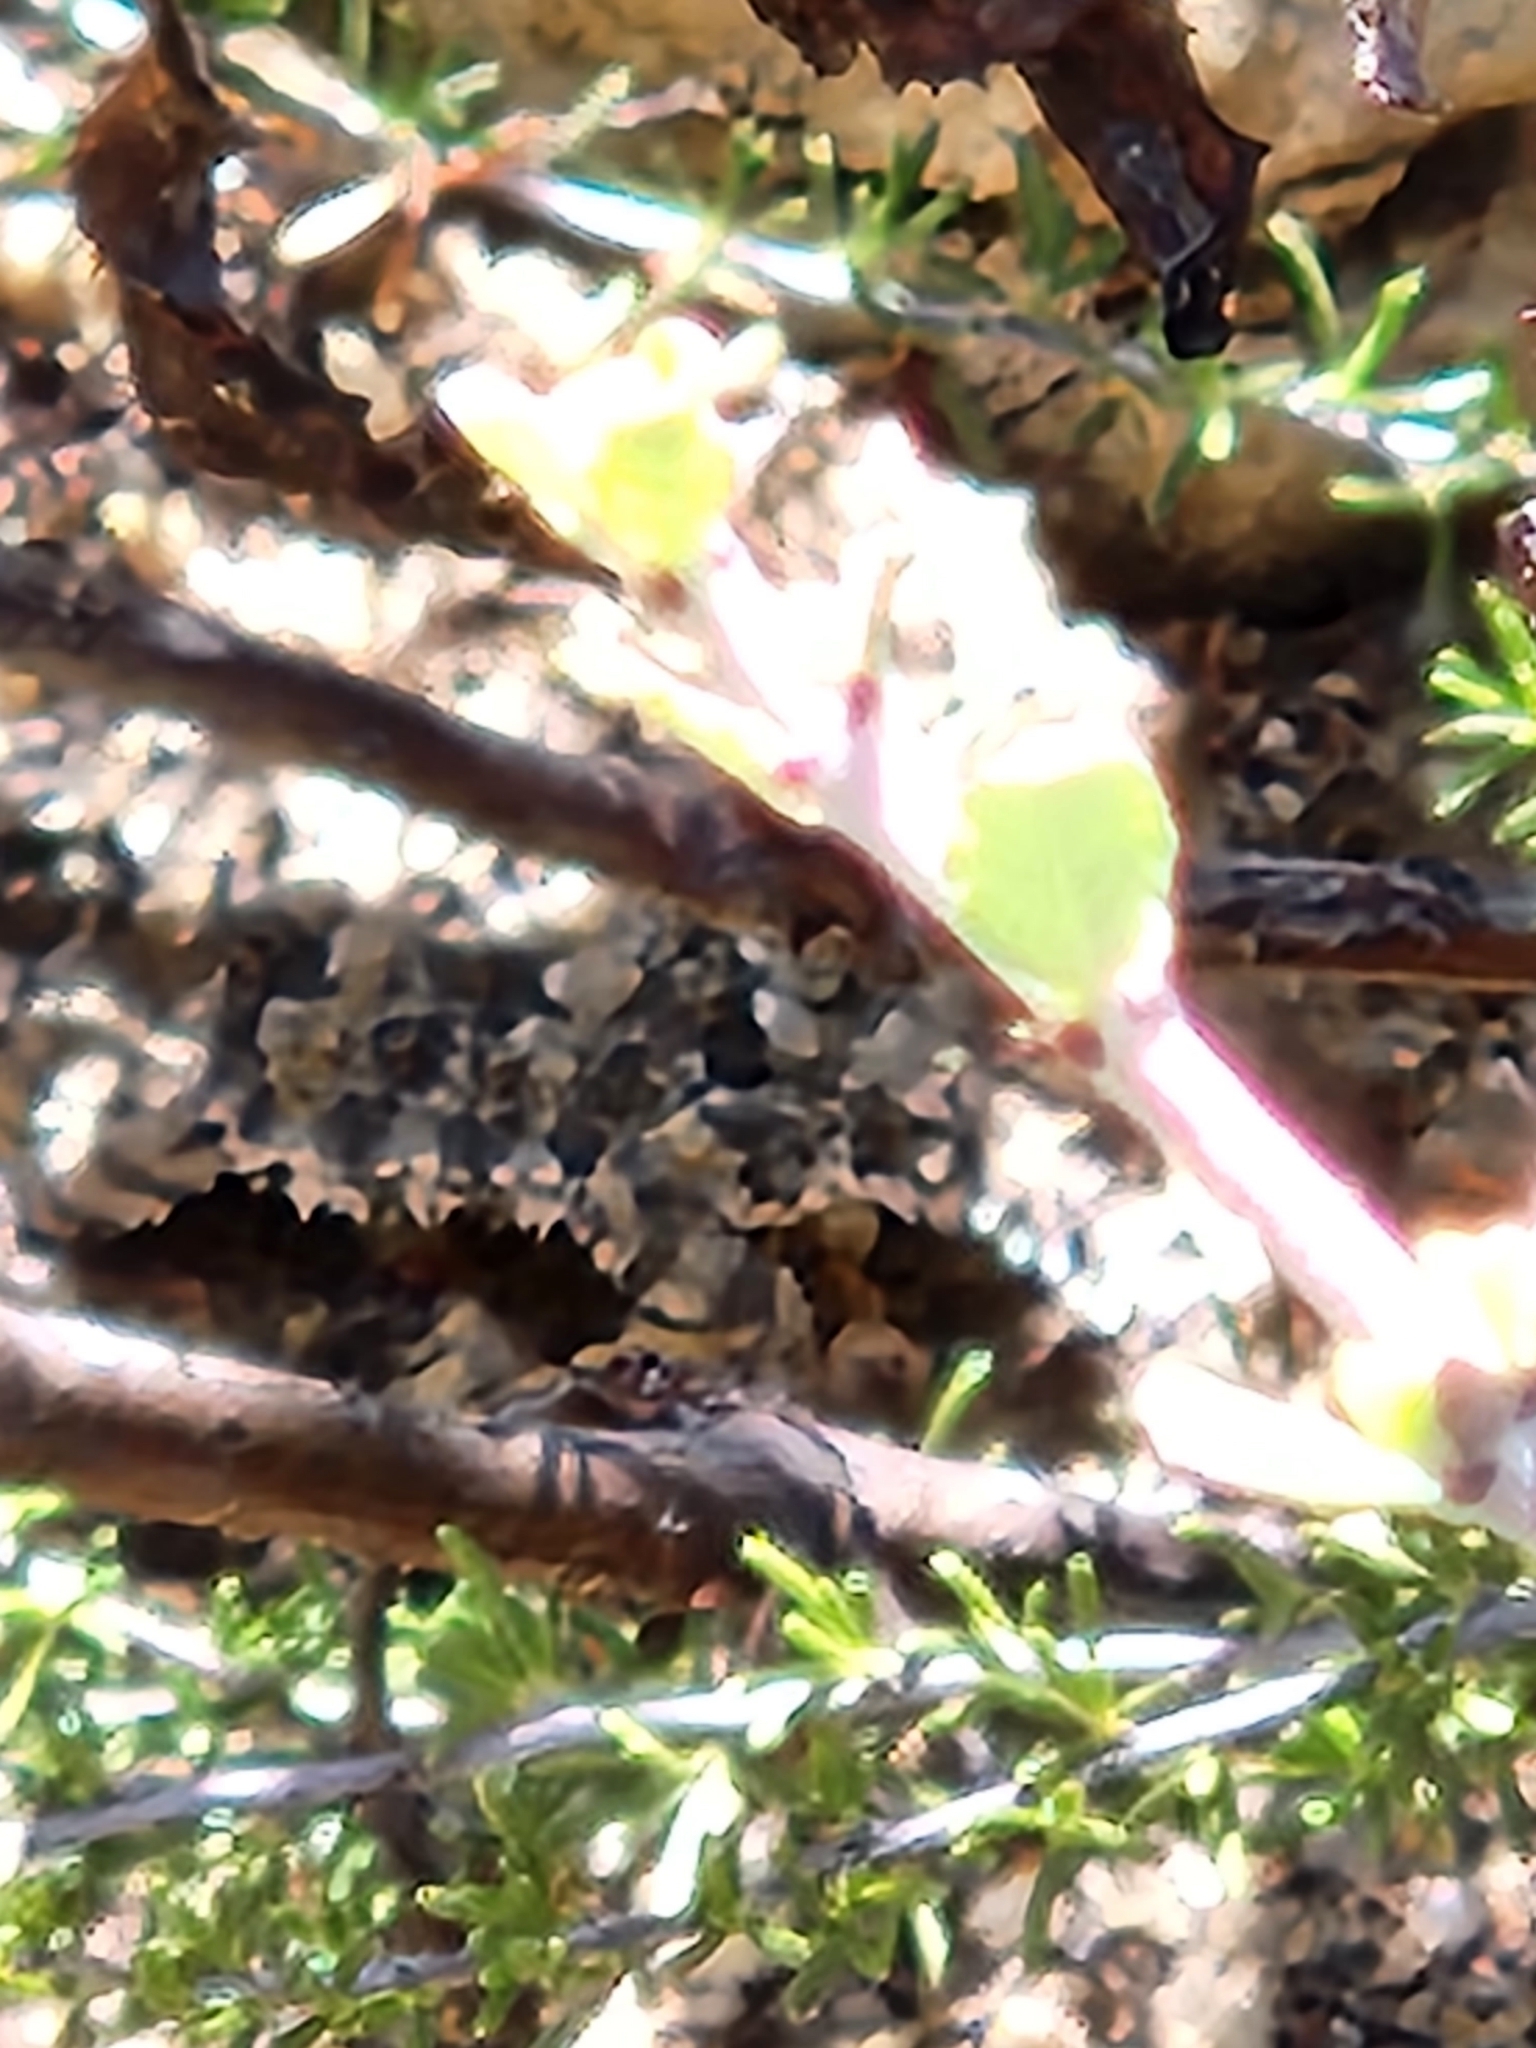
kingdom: Animalia
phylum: Chordata
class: Squamata
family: Phrynosomatidae
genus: Phrynosoma
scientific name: Phrynosoma blainvillii
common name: San diego horned lizard
